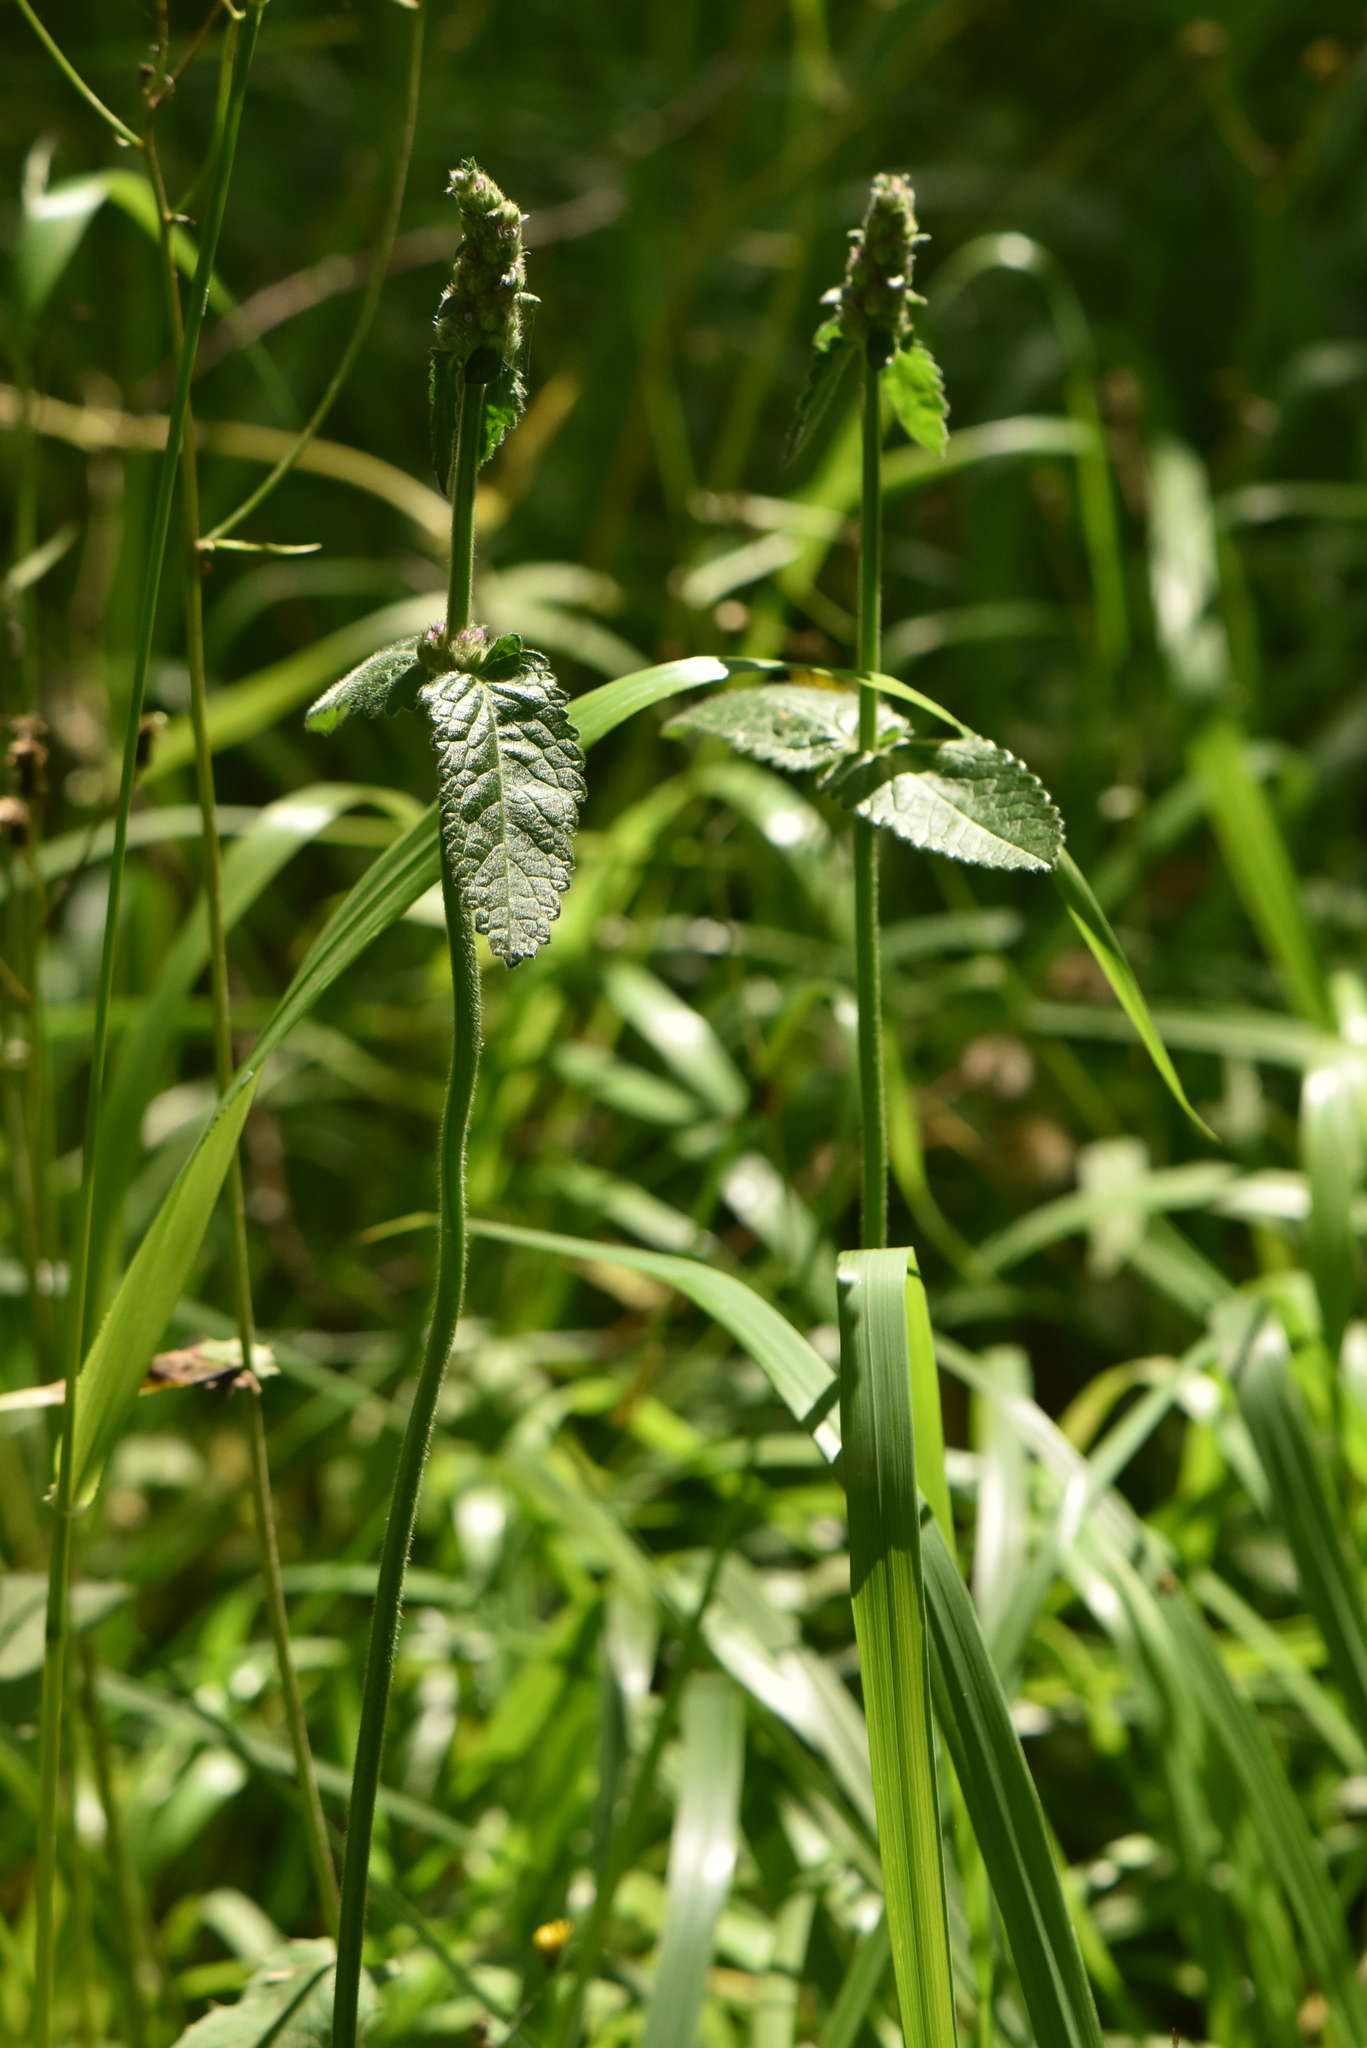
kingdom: Plantae
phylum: Tracheophyta
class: Magnoliopsida
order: Lamiales
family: Lamiaceae
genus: Betonica
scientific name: Betonica officinalis
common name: Bishop's-wort
